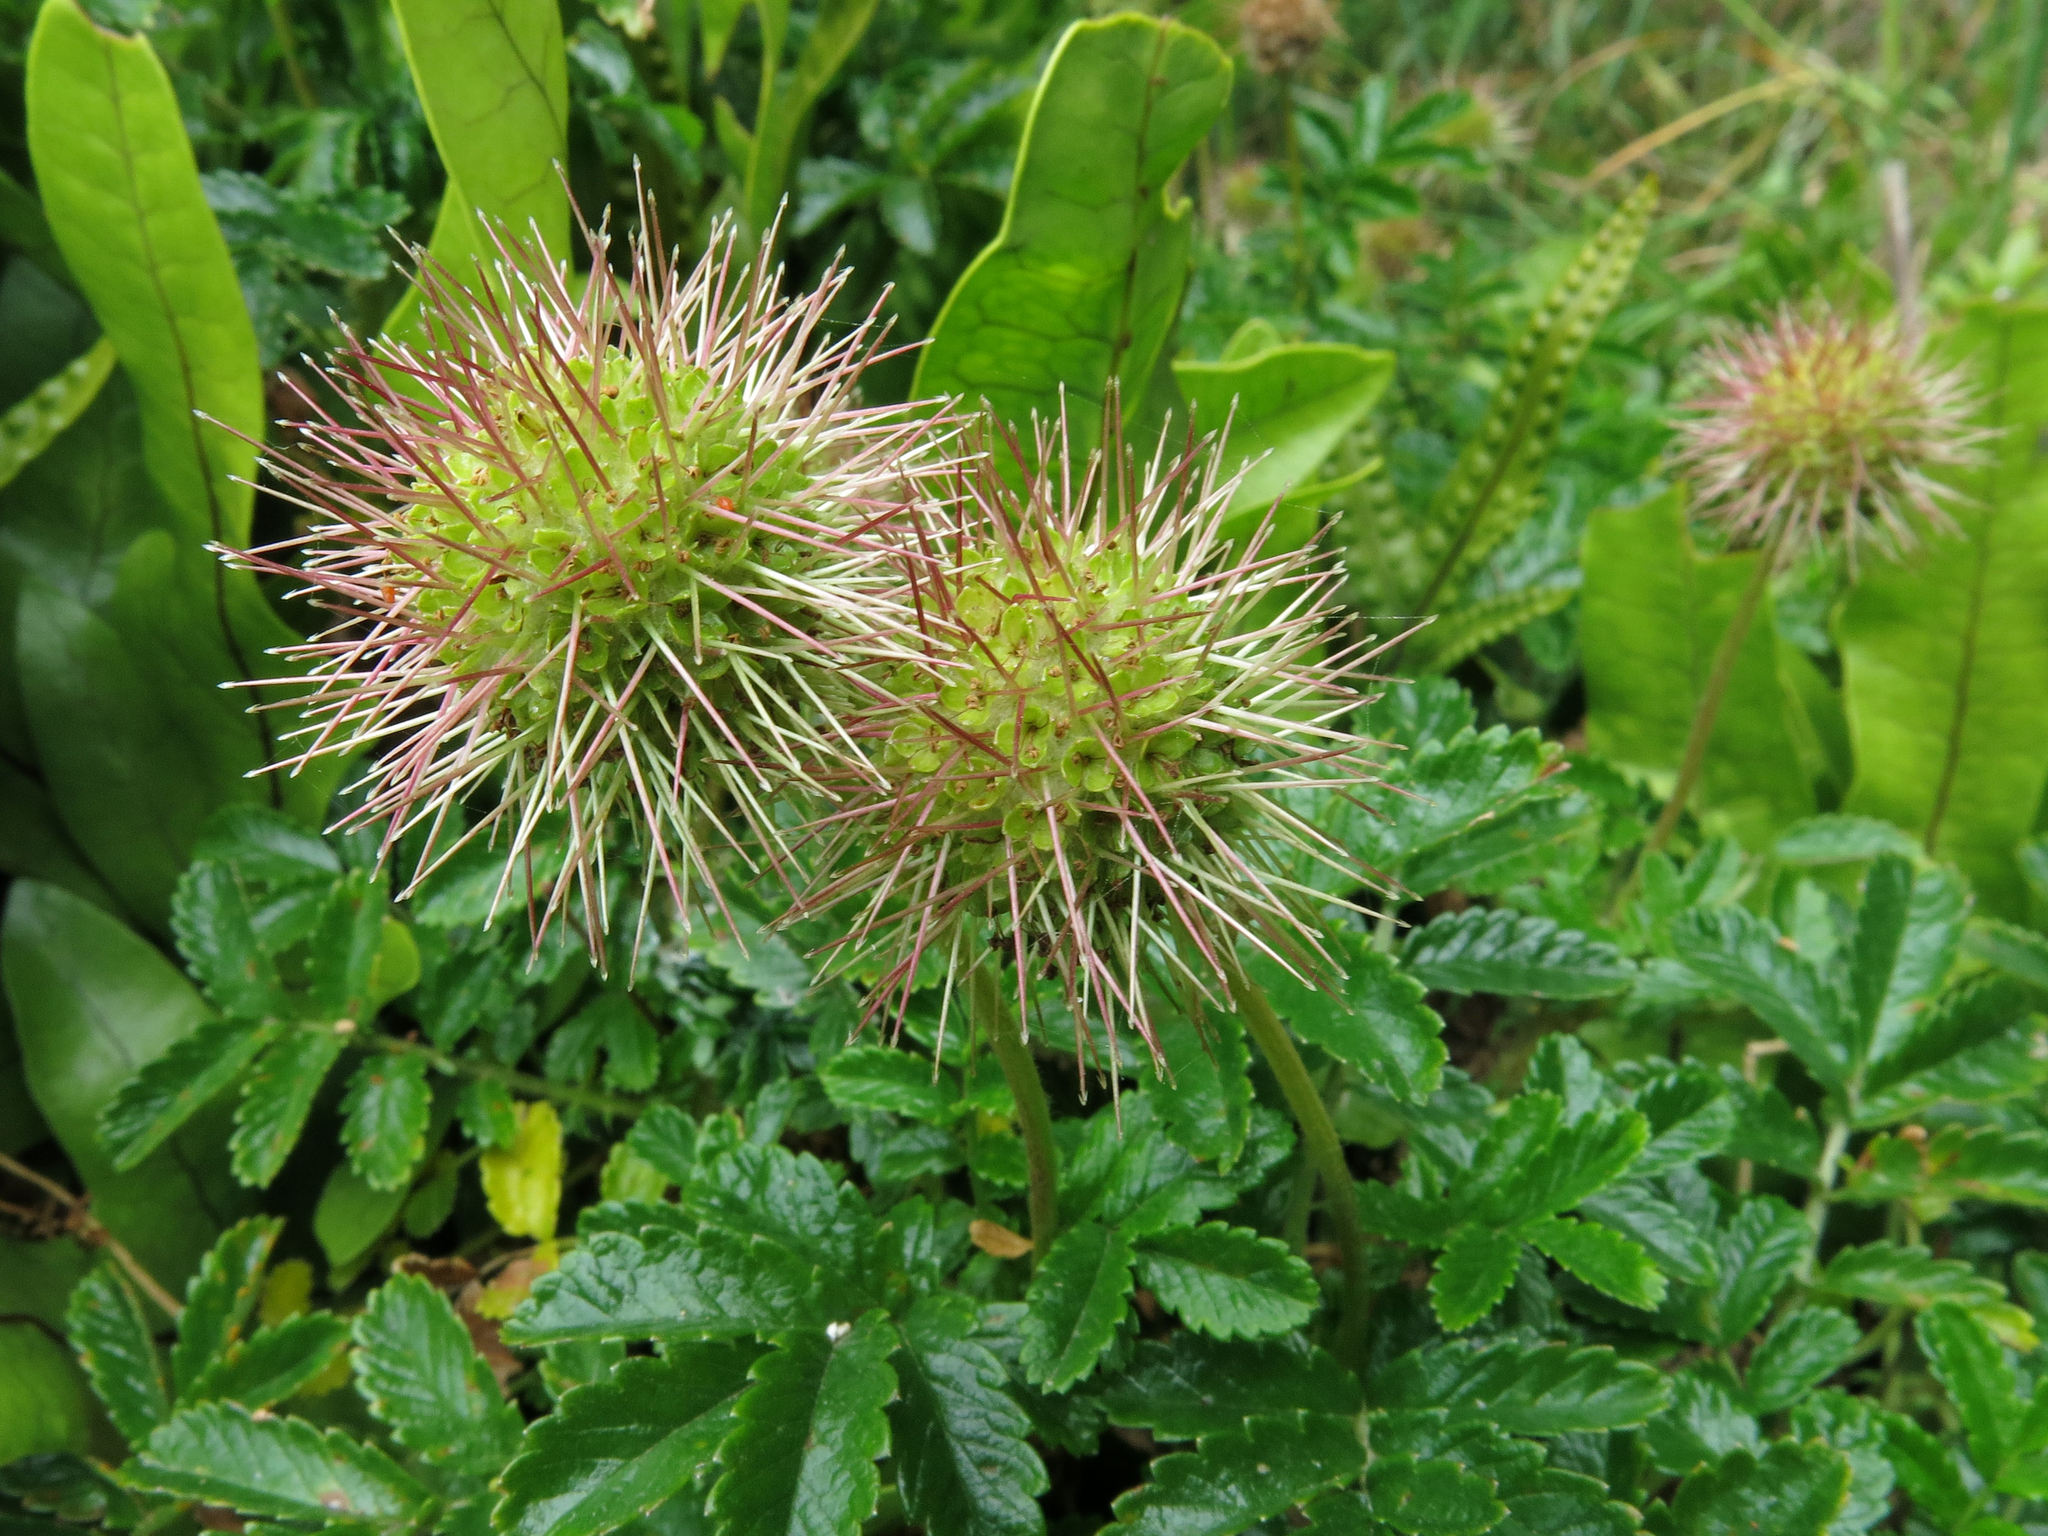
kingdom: Plantae
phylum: Tracheophyta
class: Magnoliopsida
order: Rosales
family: Rosaceae
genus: Acaena
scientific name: Acaena pallida
